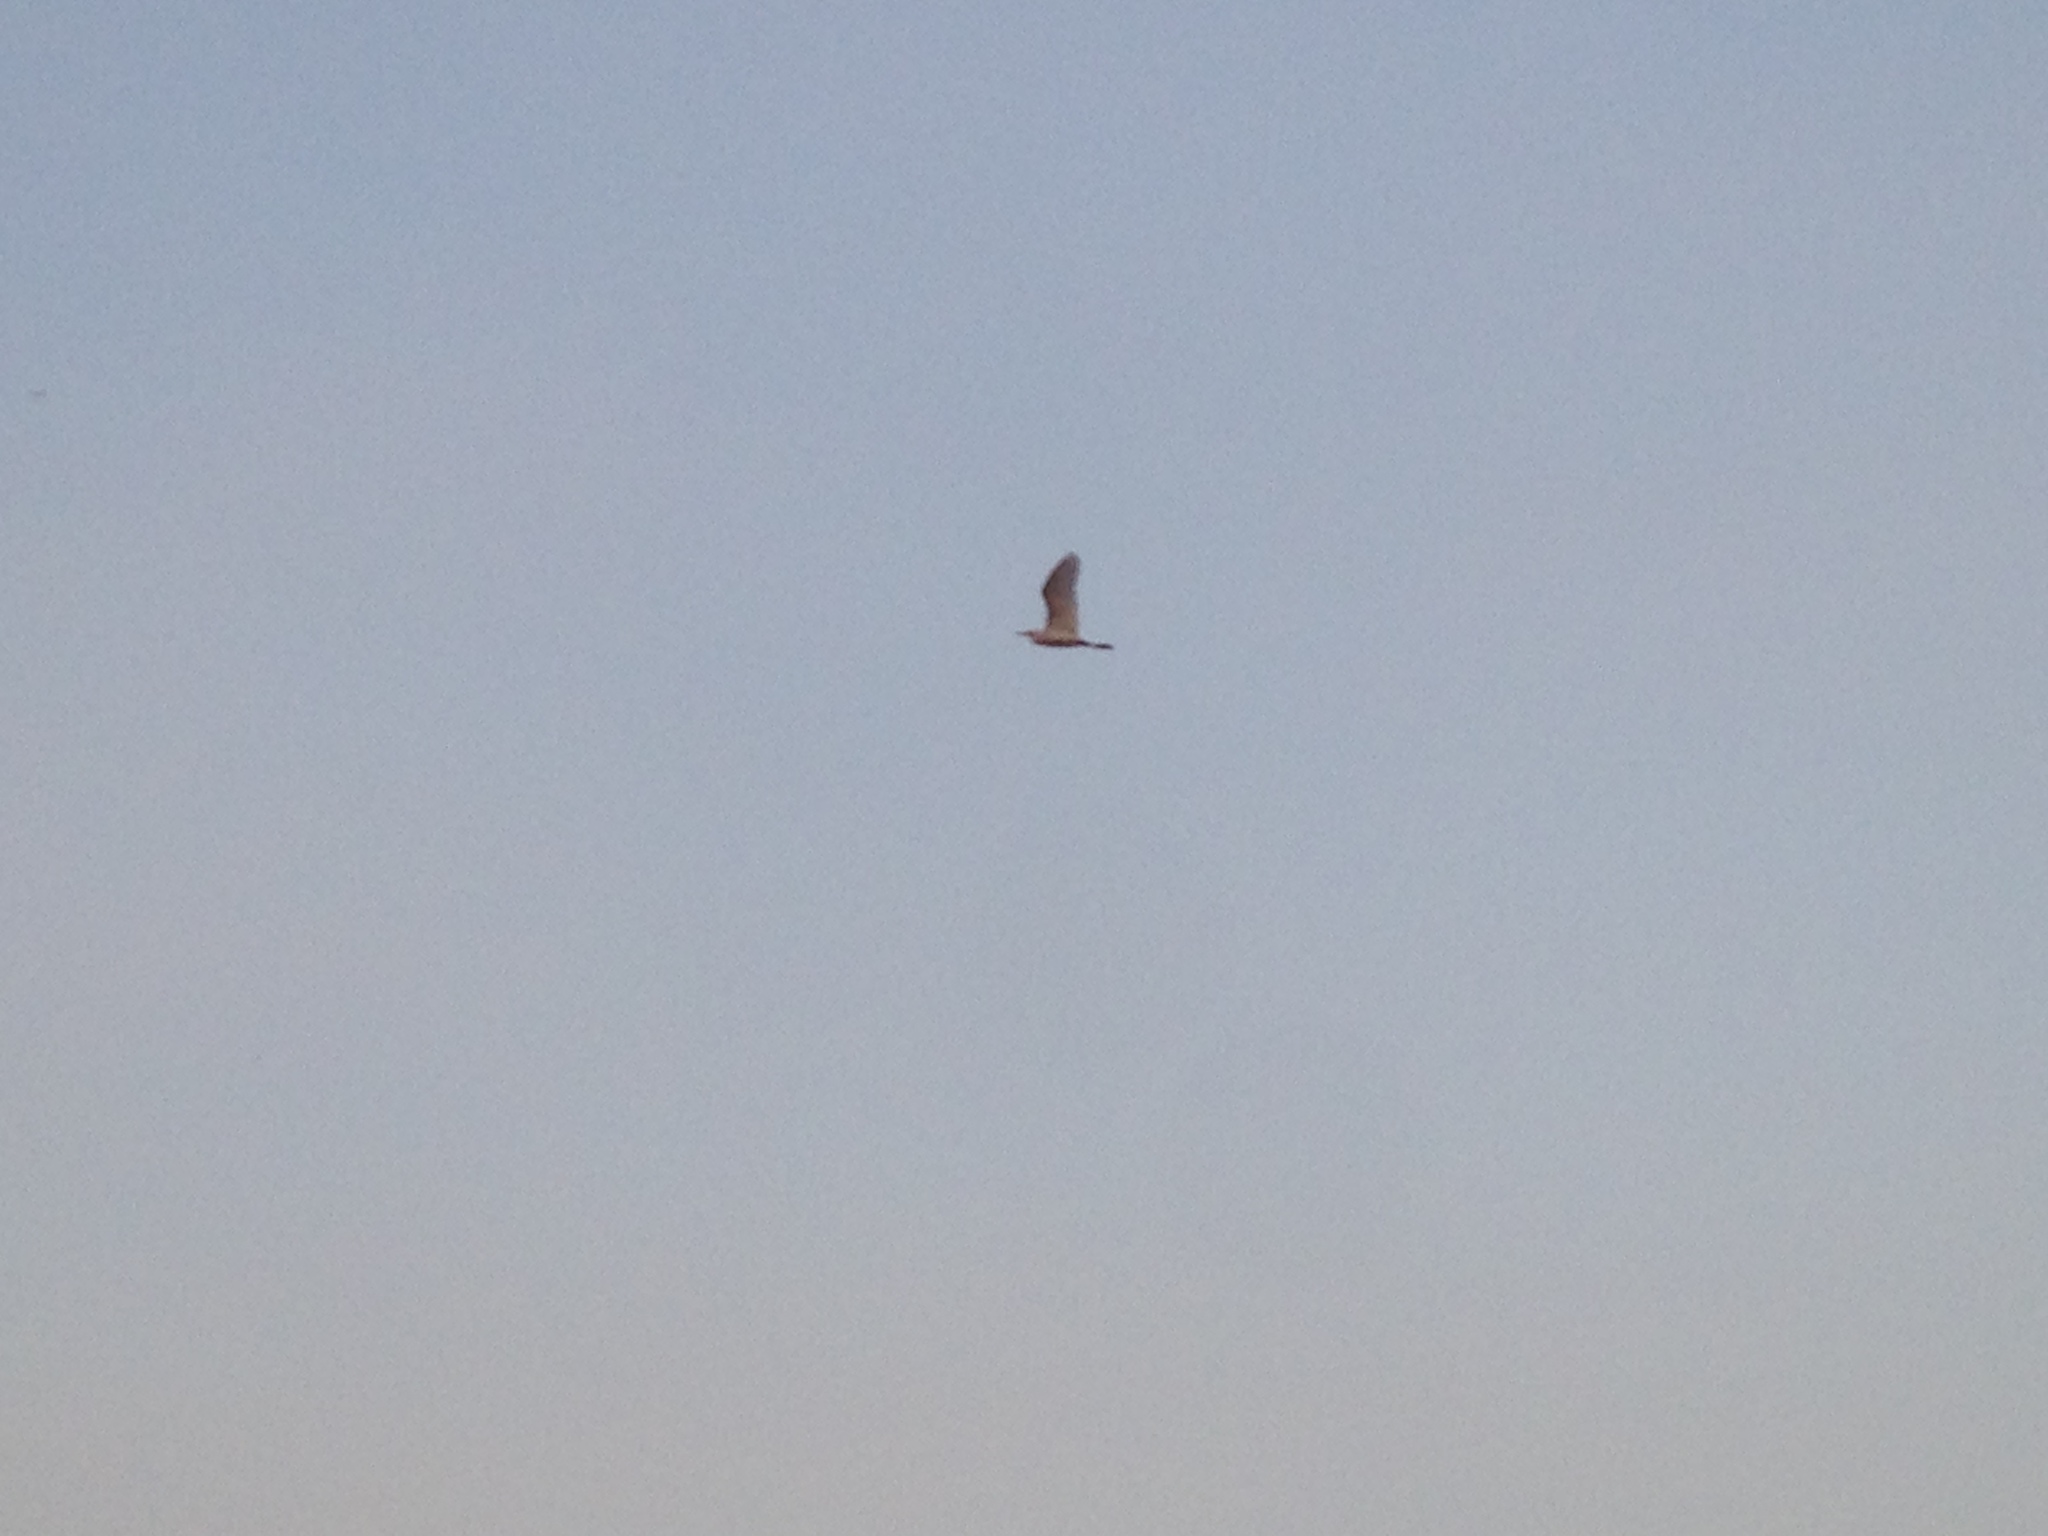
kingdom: Animalia
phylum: Chordata
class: Aves
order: Pelecaniformes
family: Ardeidae
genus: Bubulcus
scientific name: Bubulcus ibis
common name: Cattle egret
